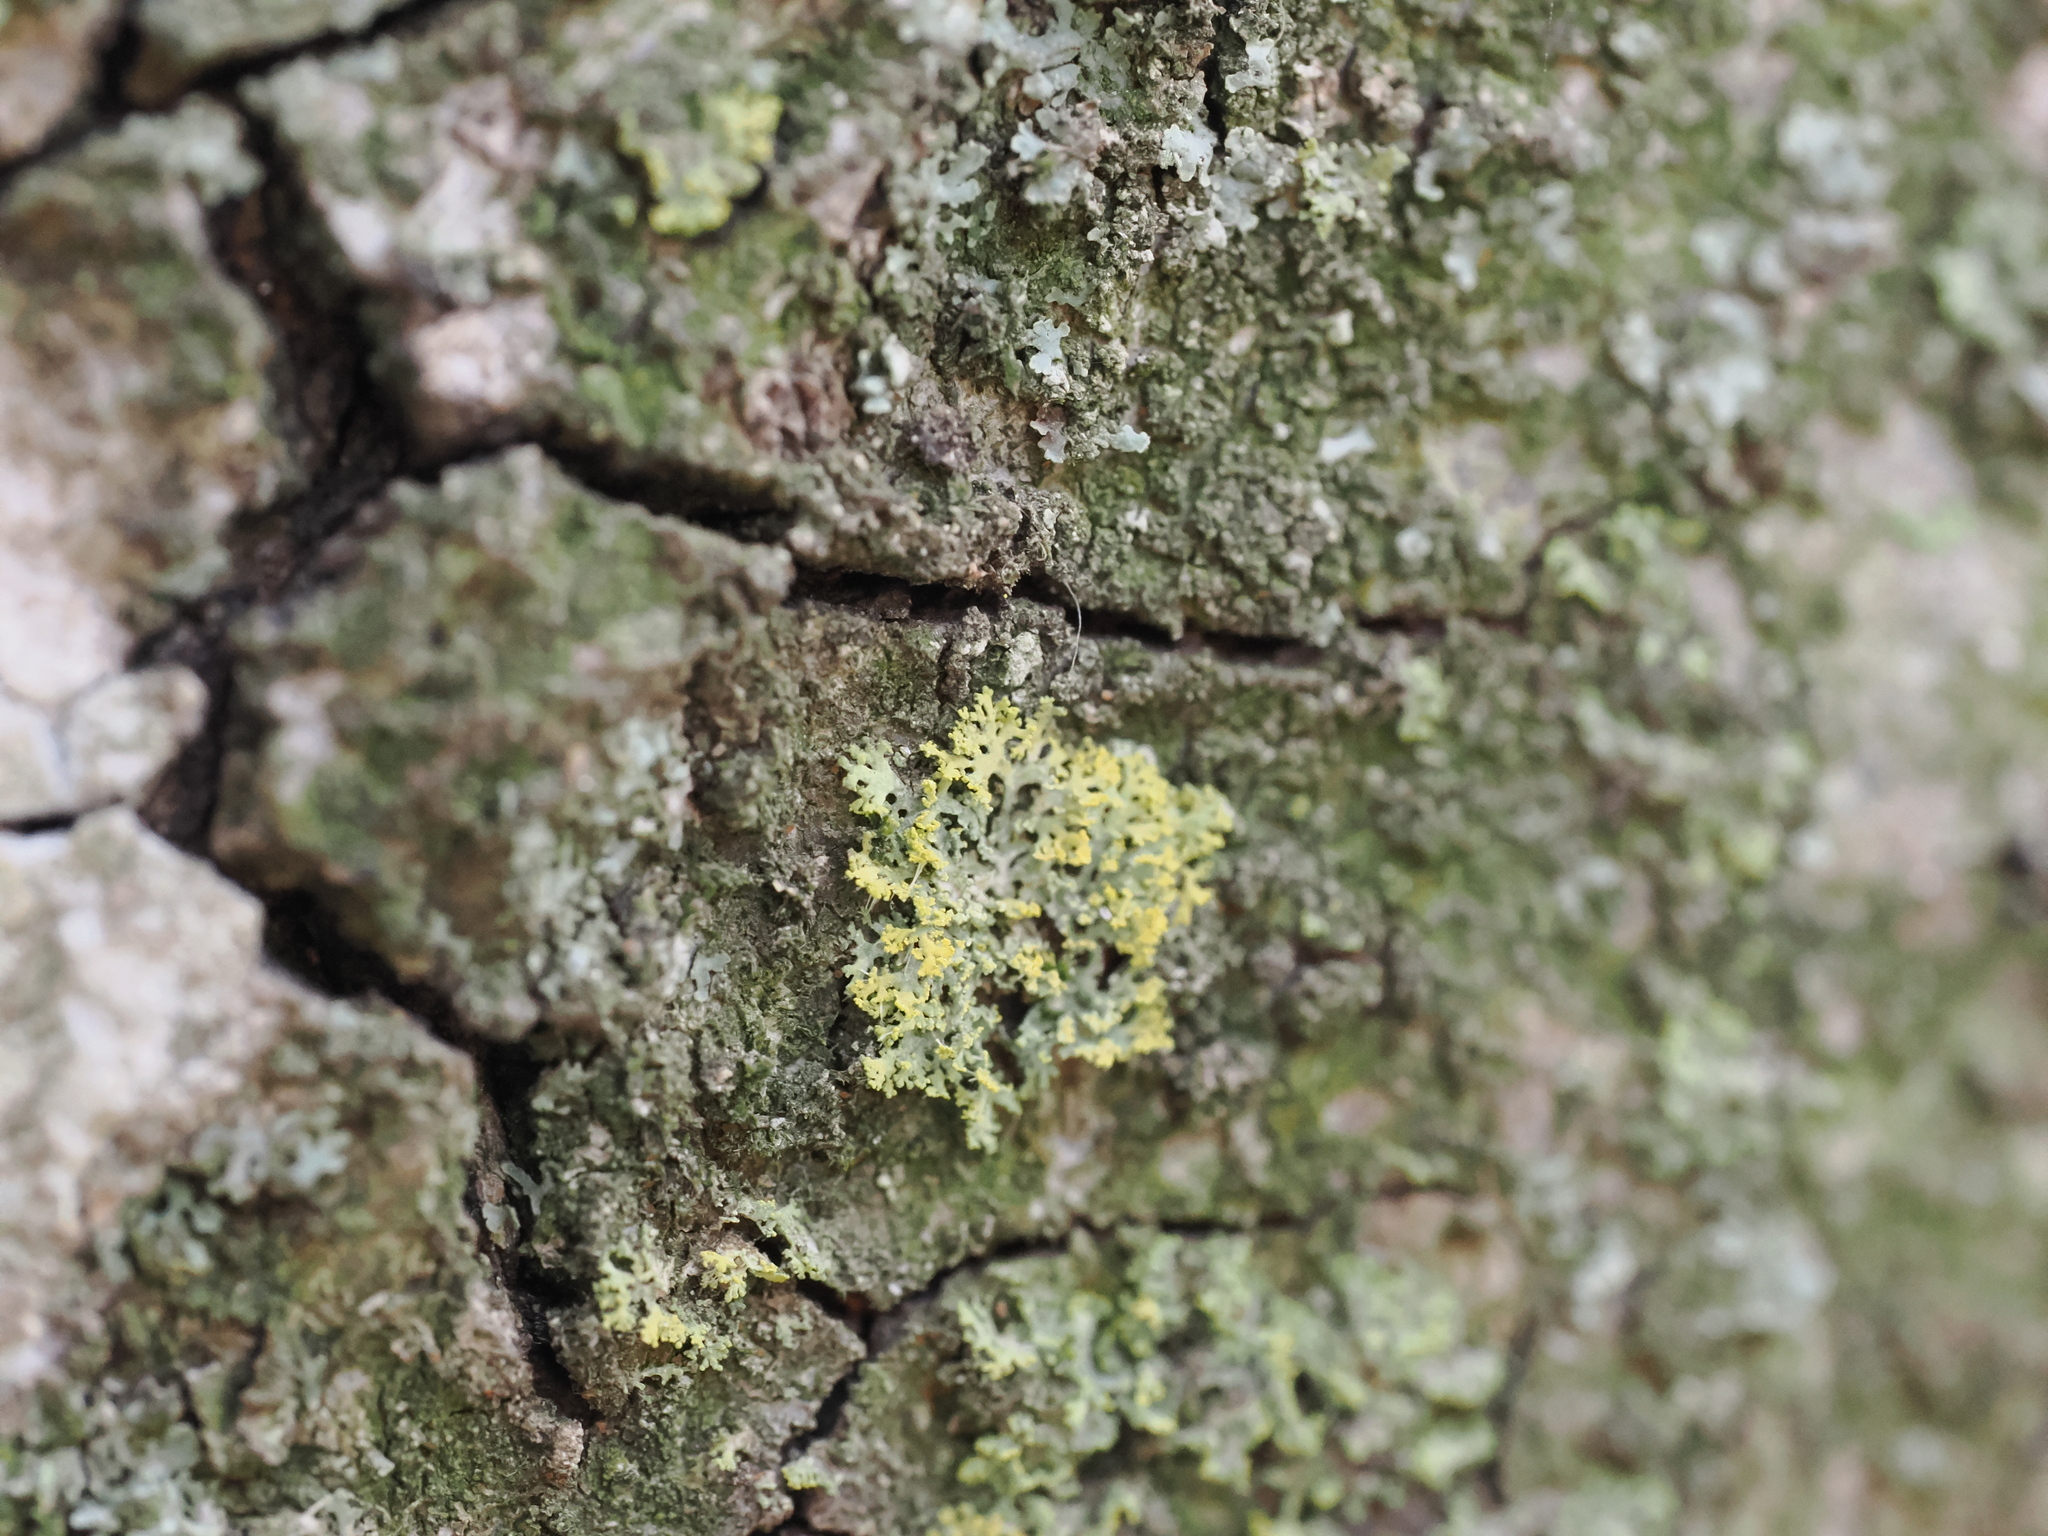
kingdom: Fungi
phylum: Ascomycota
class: Candelariomycetes
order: Candelariales
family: Candelariaceae
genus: Candelaria
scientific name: Candelaria concolor
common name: Candleflame lichen
